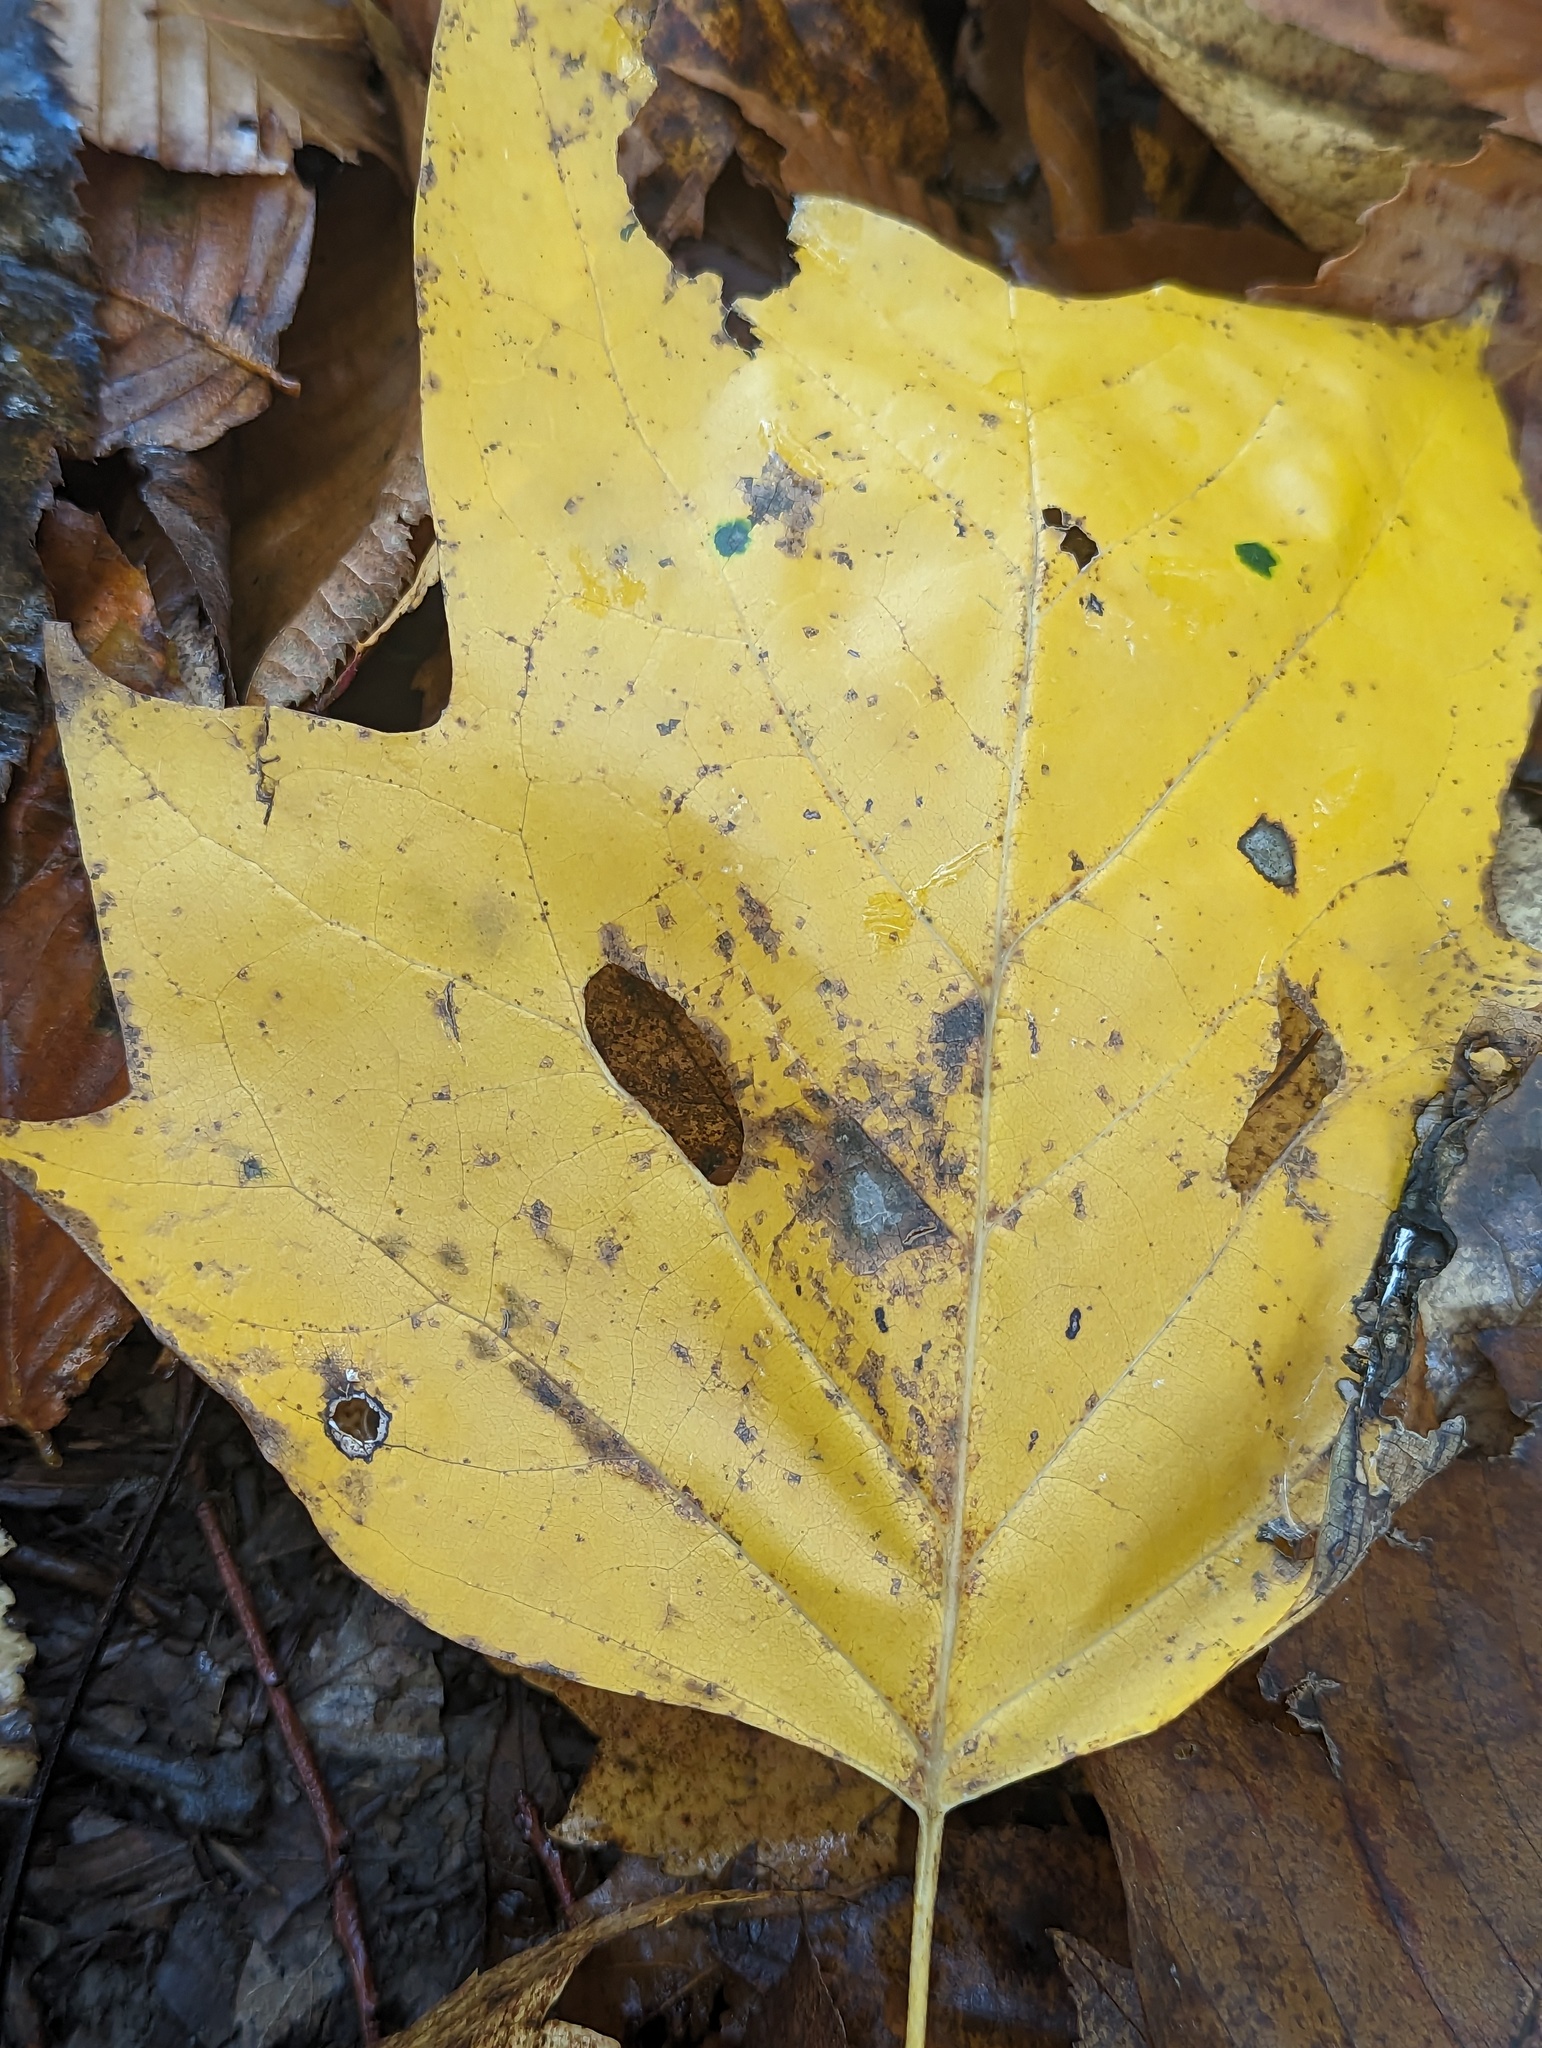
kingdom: Plantae
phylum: Tracheophyta
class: Magnoliopsida
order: Magnoliales
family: Magnoliaceae
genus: Liriodendron
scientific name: Liriodendron tulipifera
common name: Tulip tree
